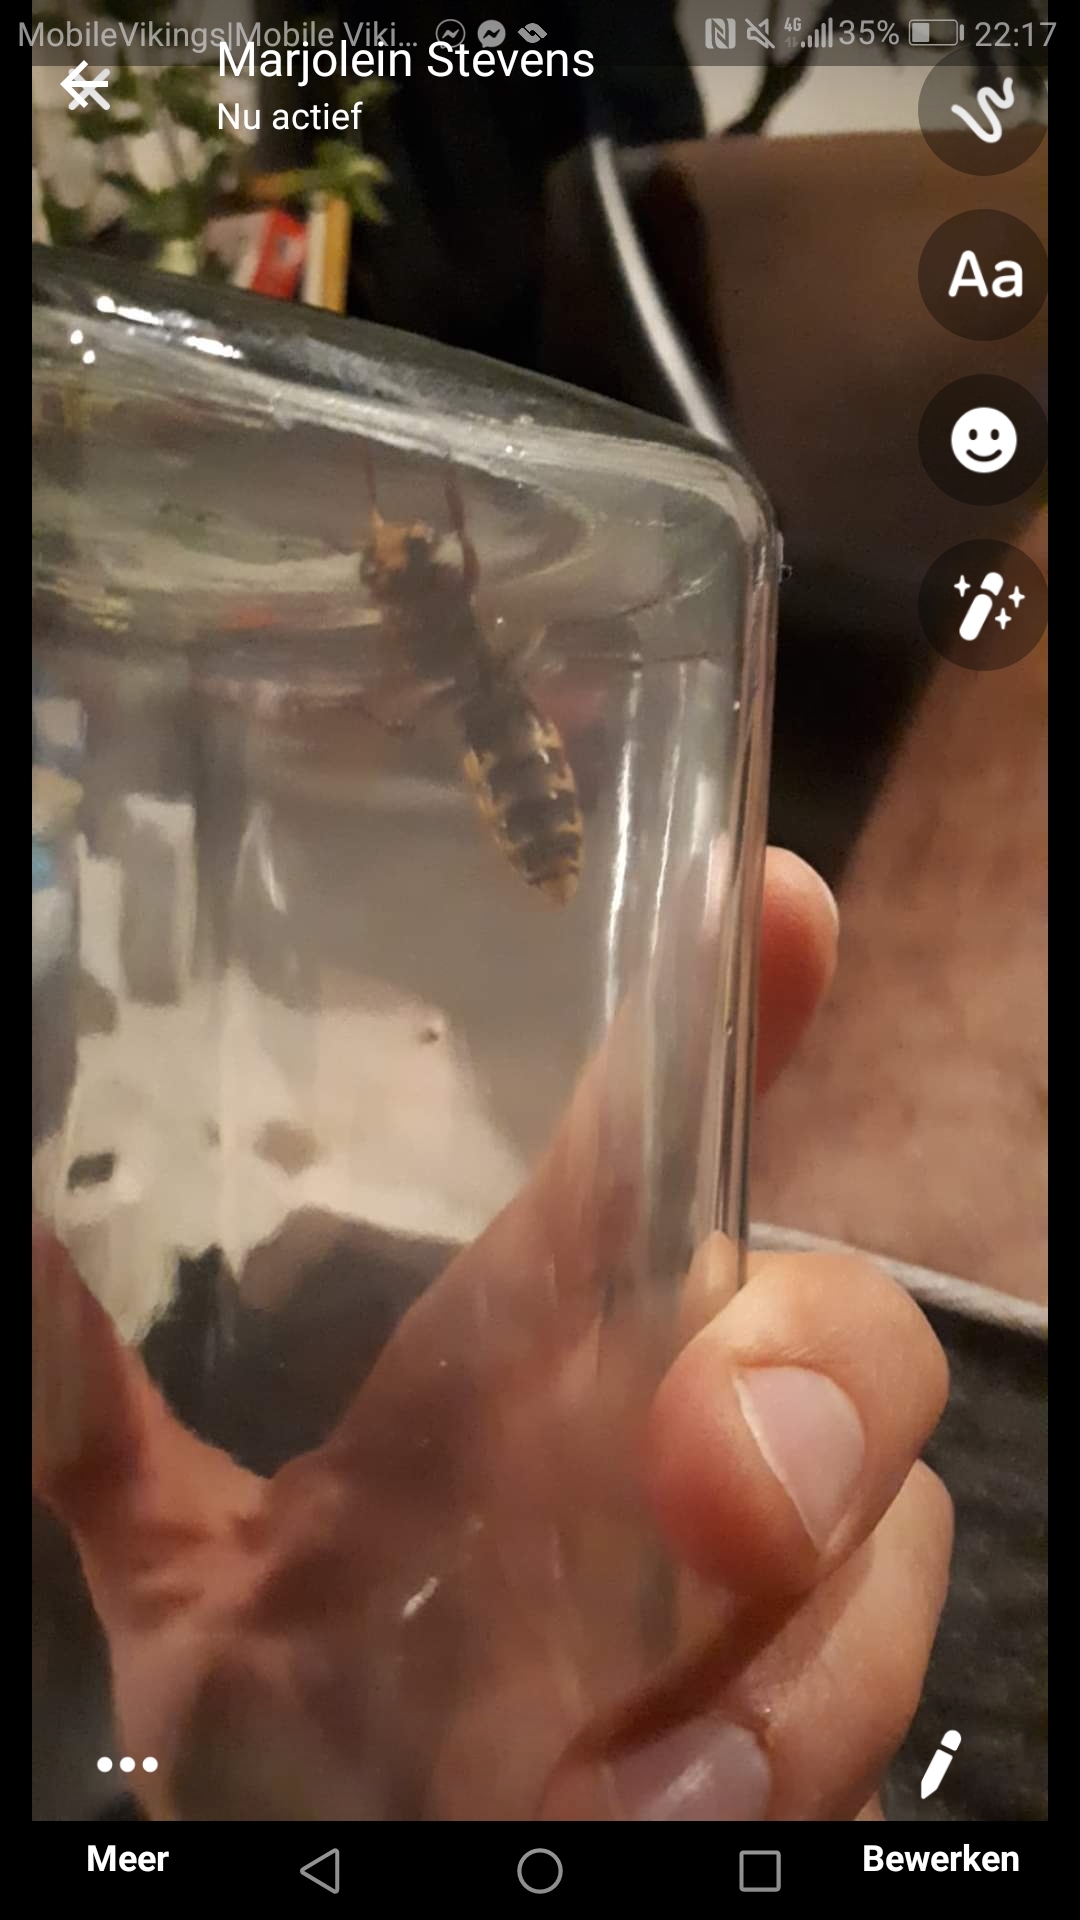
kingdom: Animalia
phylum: Arthropoda
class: Insecta
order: Hymenoptera
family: Vespidae
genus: Vespa
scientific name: Vespa crabro
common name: Hornet
